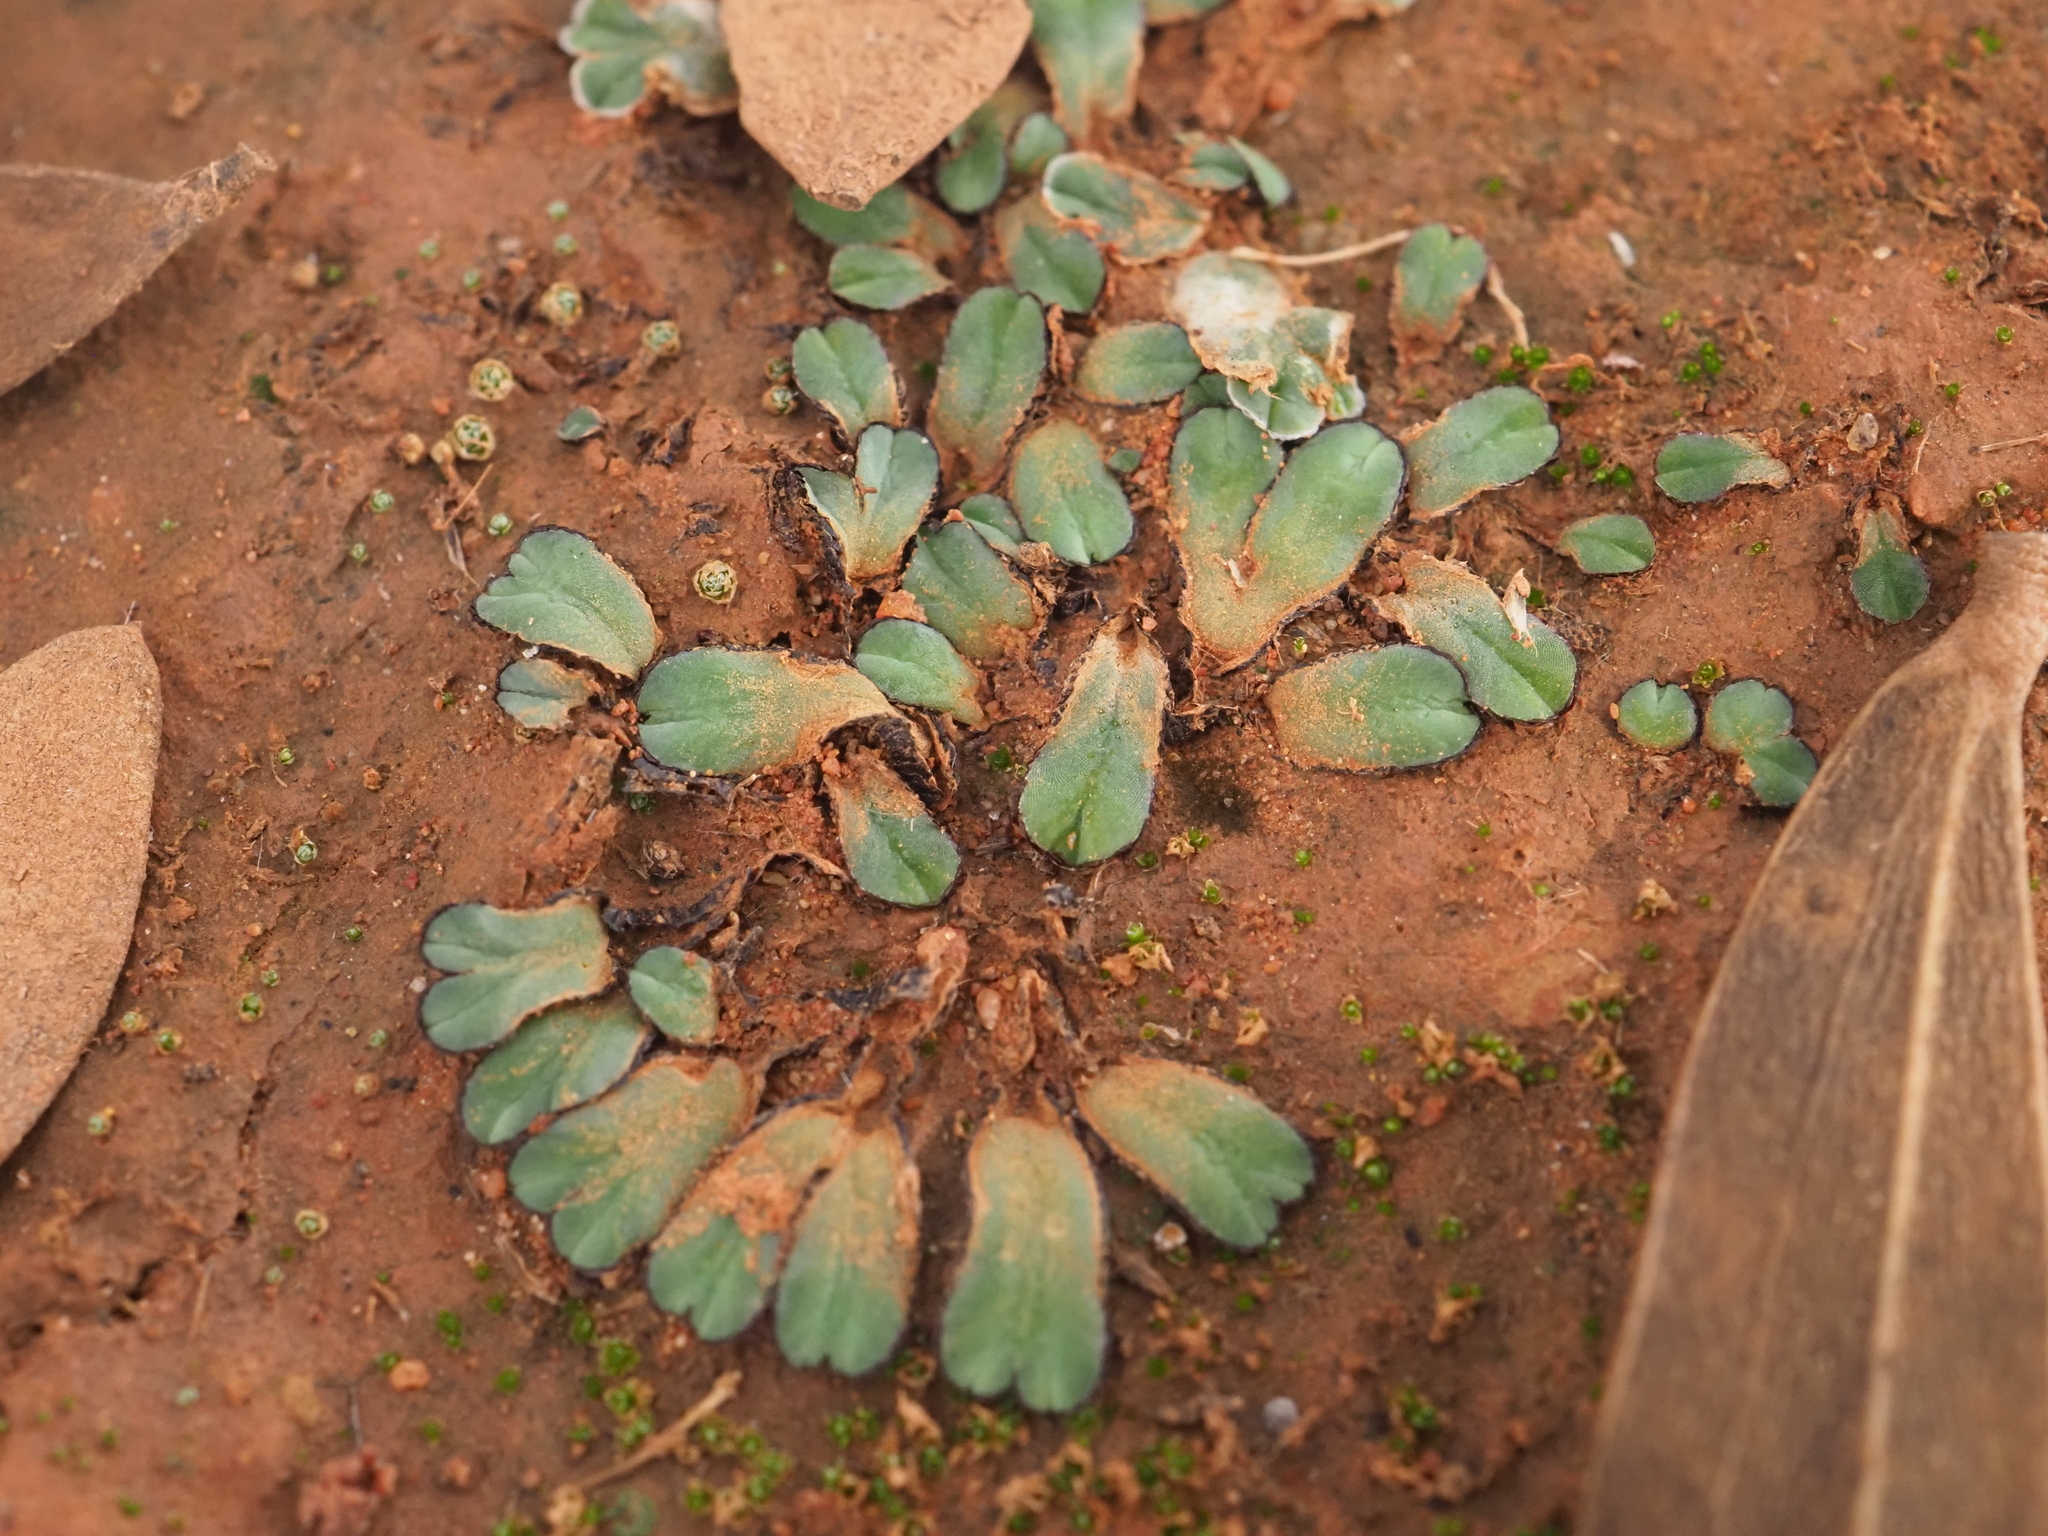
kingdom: Plantae
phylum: Marchantiophyta
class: Marchantiopsida
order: Marchantiales
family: Ricciaceae
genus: Riccia
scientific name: Riccia inflexa
